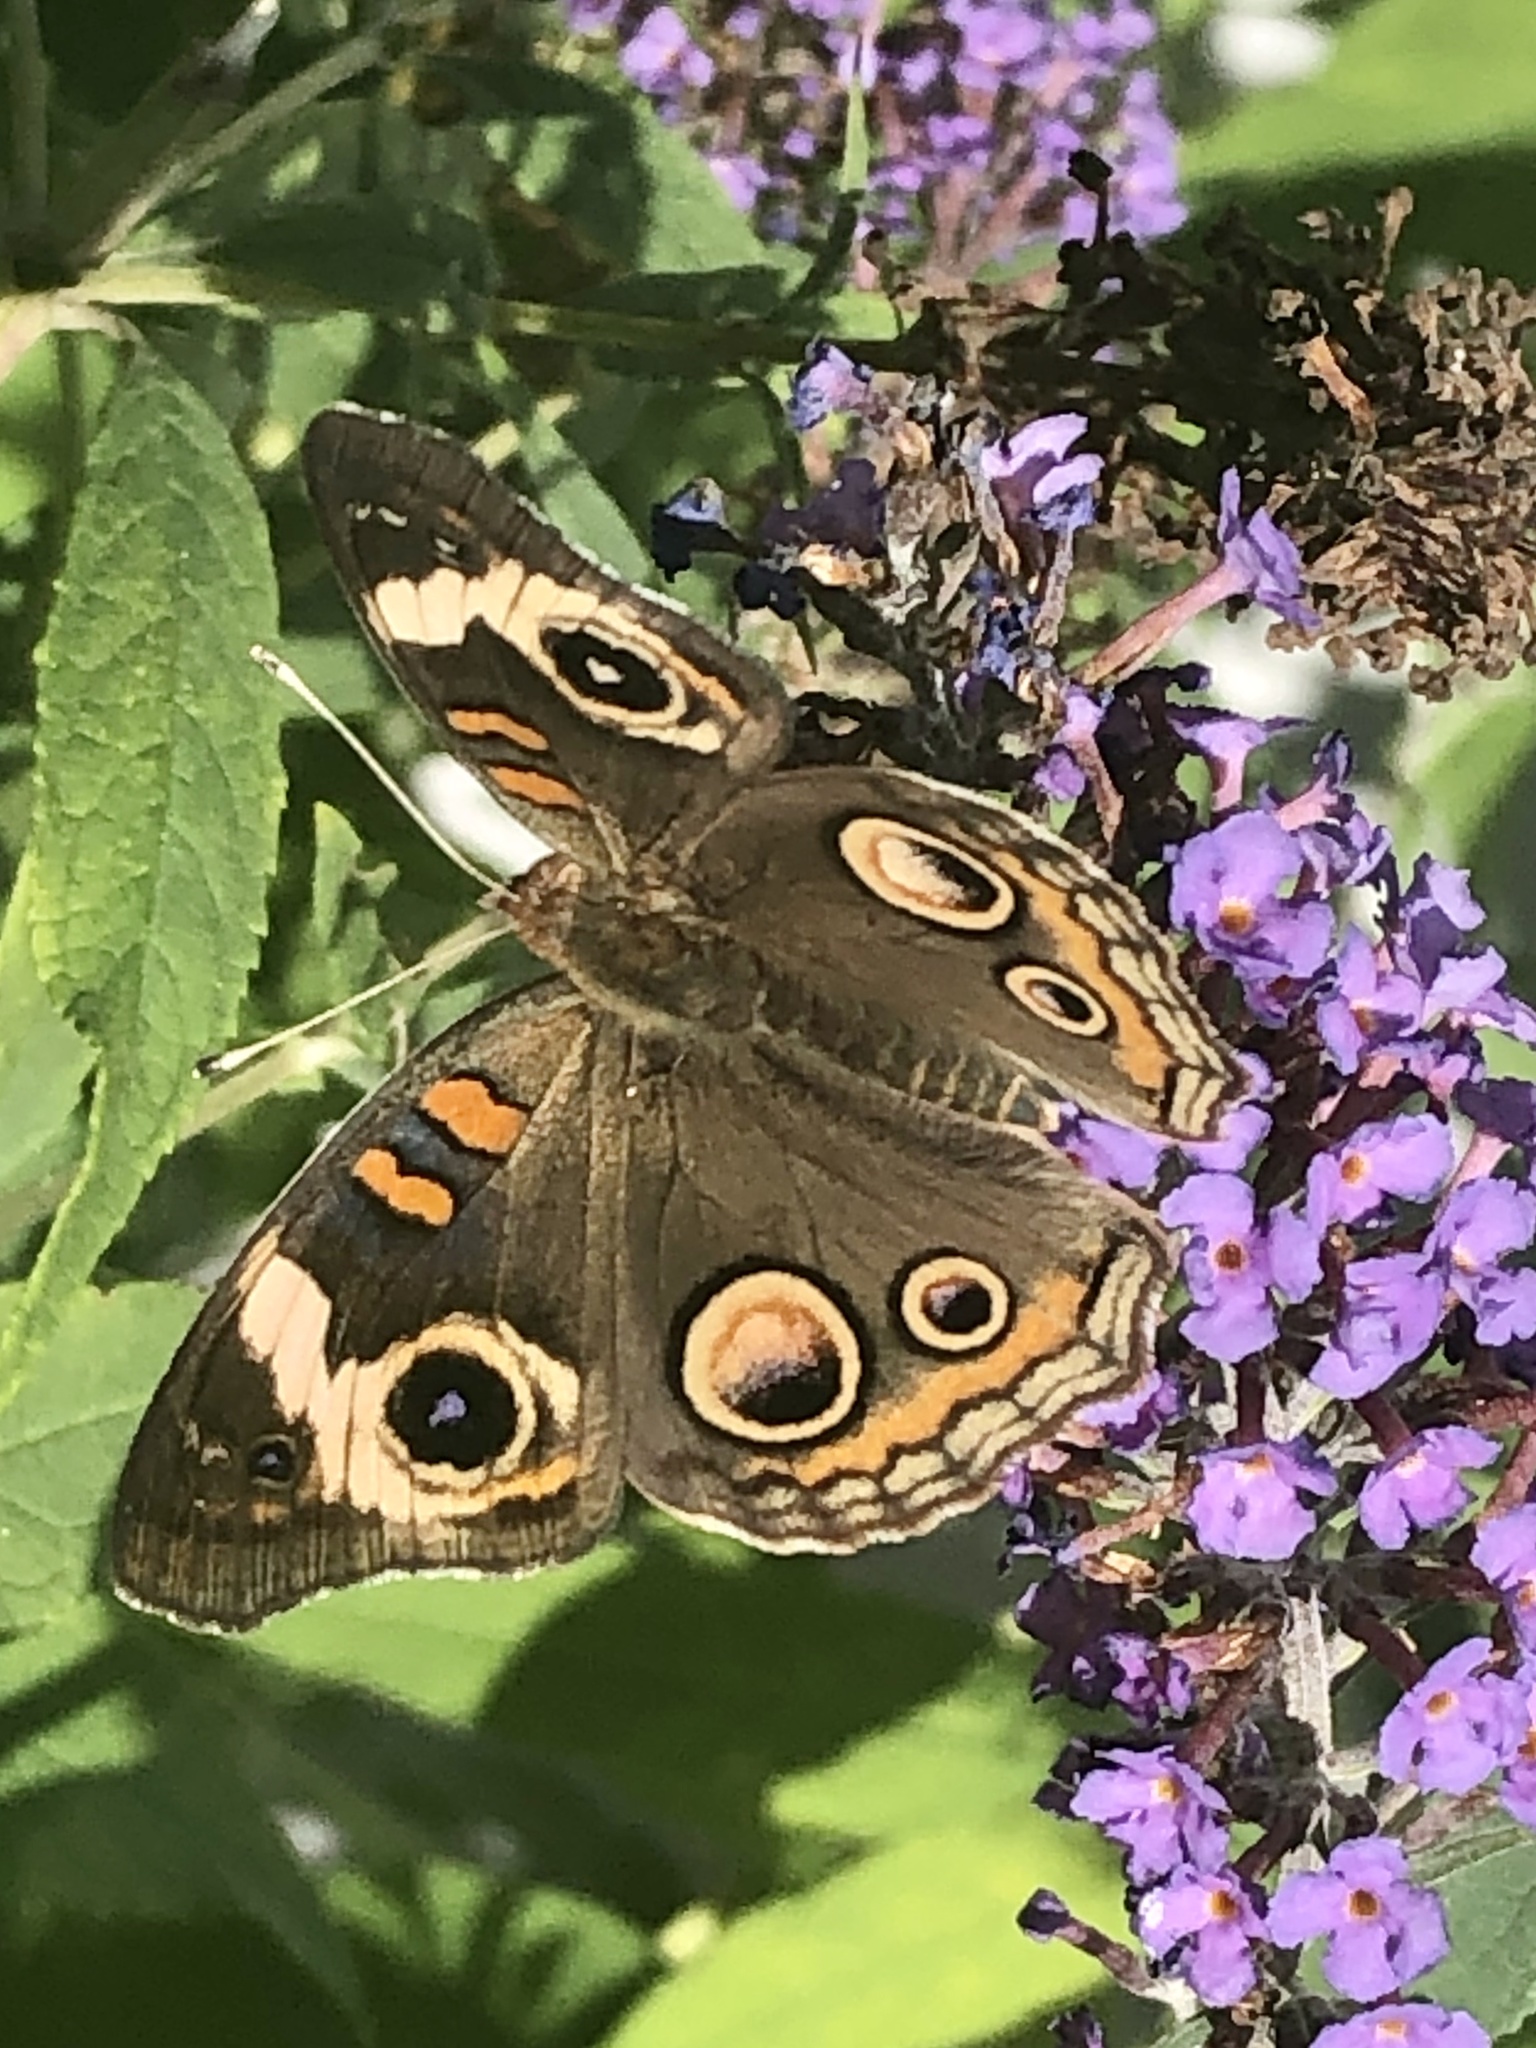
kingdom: Animalia
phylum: Arthropoda
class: Insecta
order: Lepidoptera
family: Nymphalidae
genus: Junonia
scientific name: Junonia coenia
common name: Common buckeye
